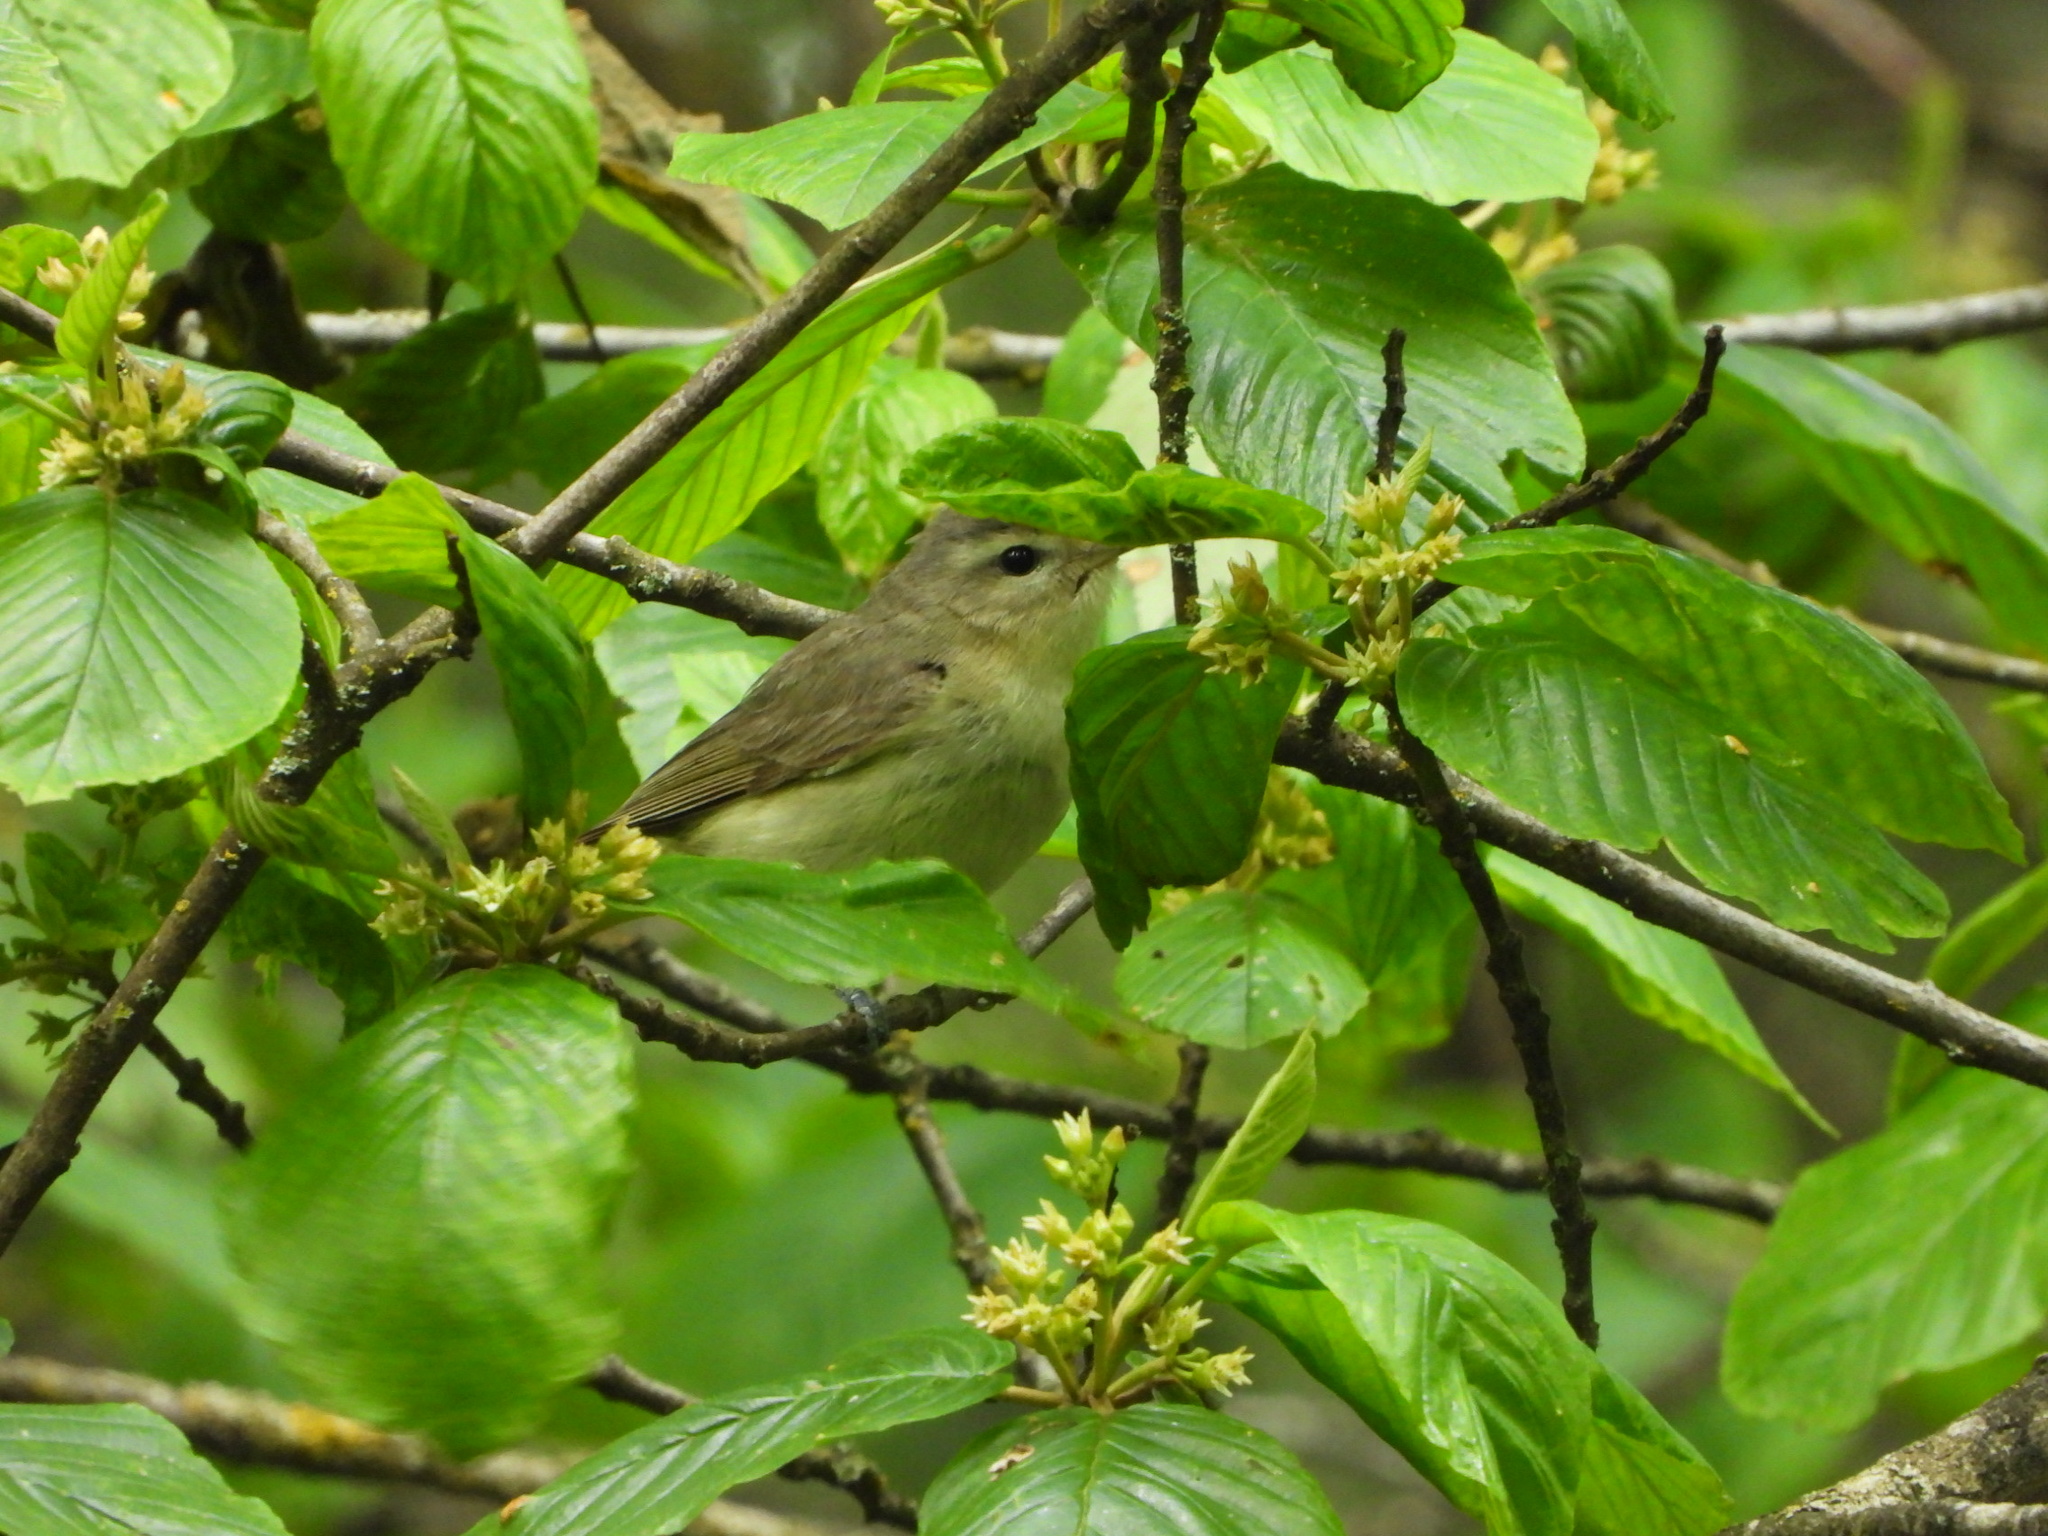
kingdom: Animalia
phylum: Chordata
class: Aves
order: Passeriformes
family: Vireonidae
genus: Vireo
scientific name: Vireo gilvus
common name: Warbling vireo
